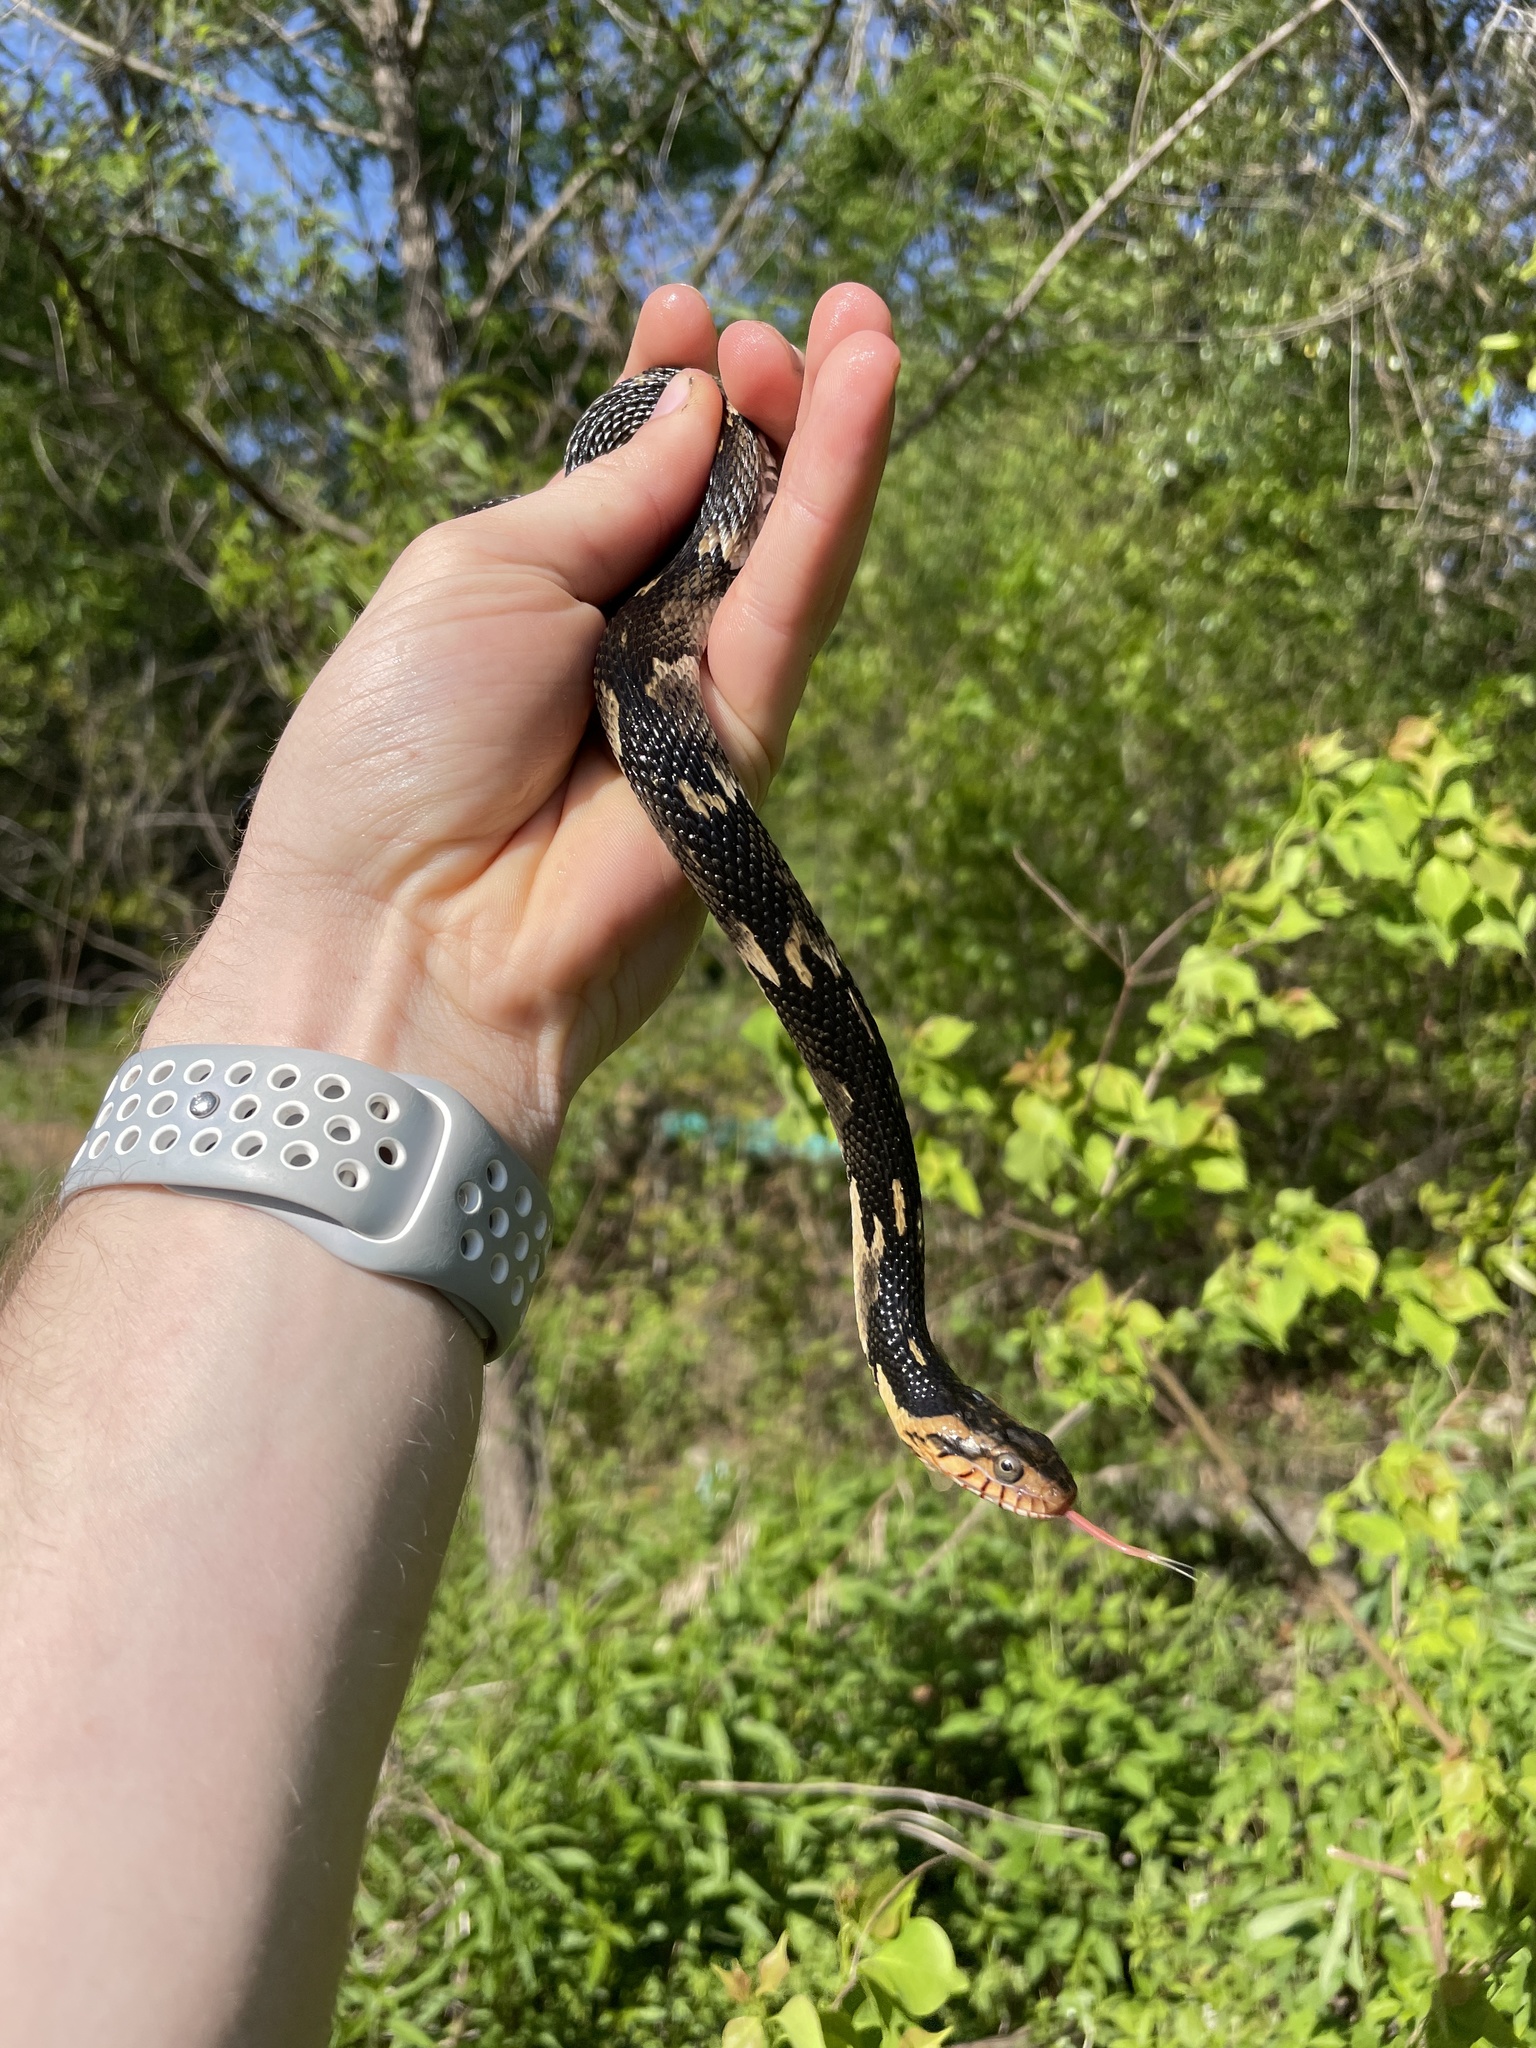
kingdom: Animalia
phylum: Chordata
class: Squamata
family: Colubridae
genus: Nerodia
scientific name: Nerodia fasciata
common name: Southern water snake
